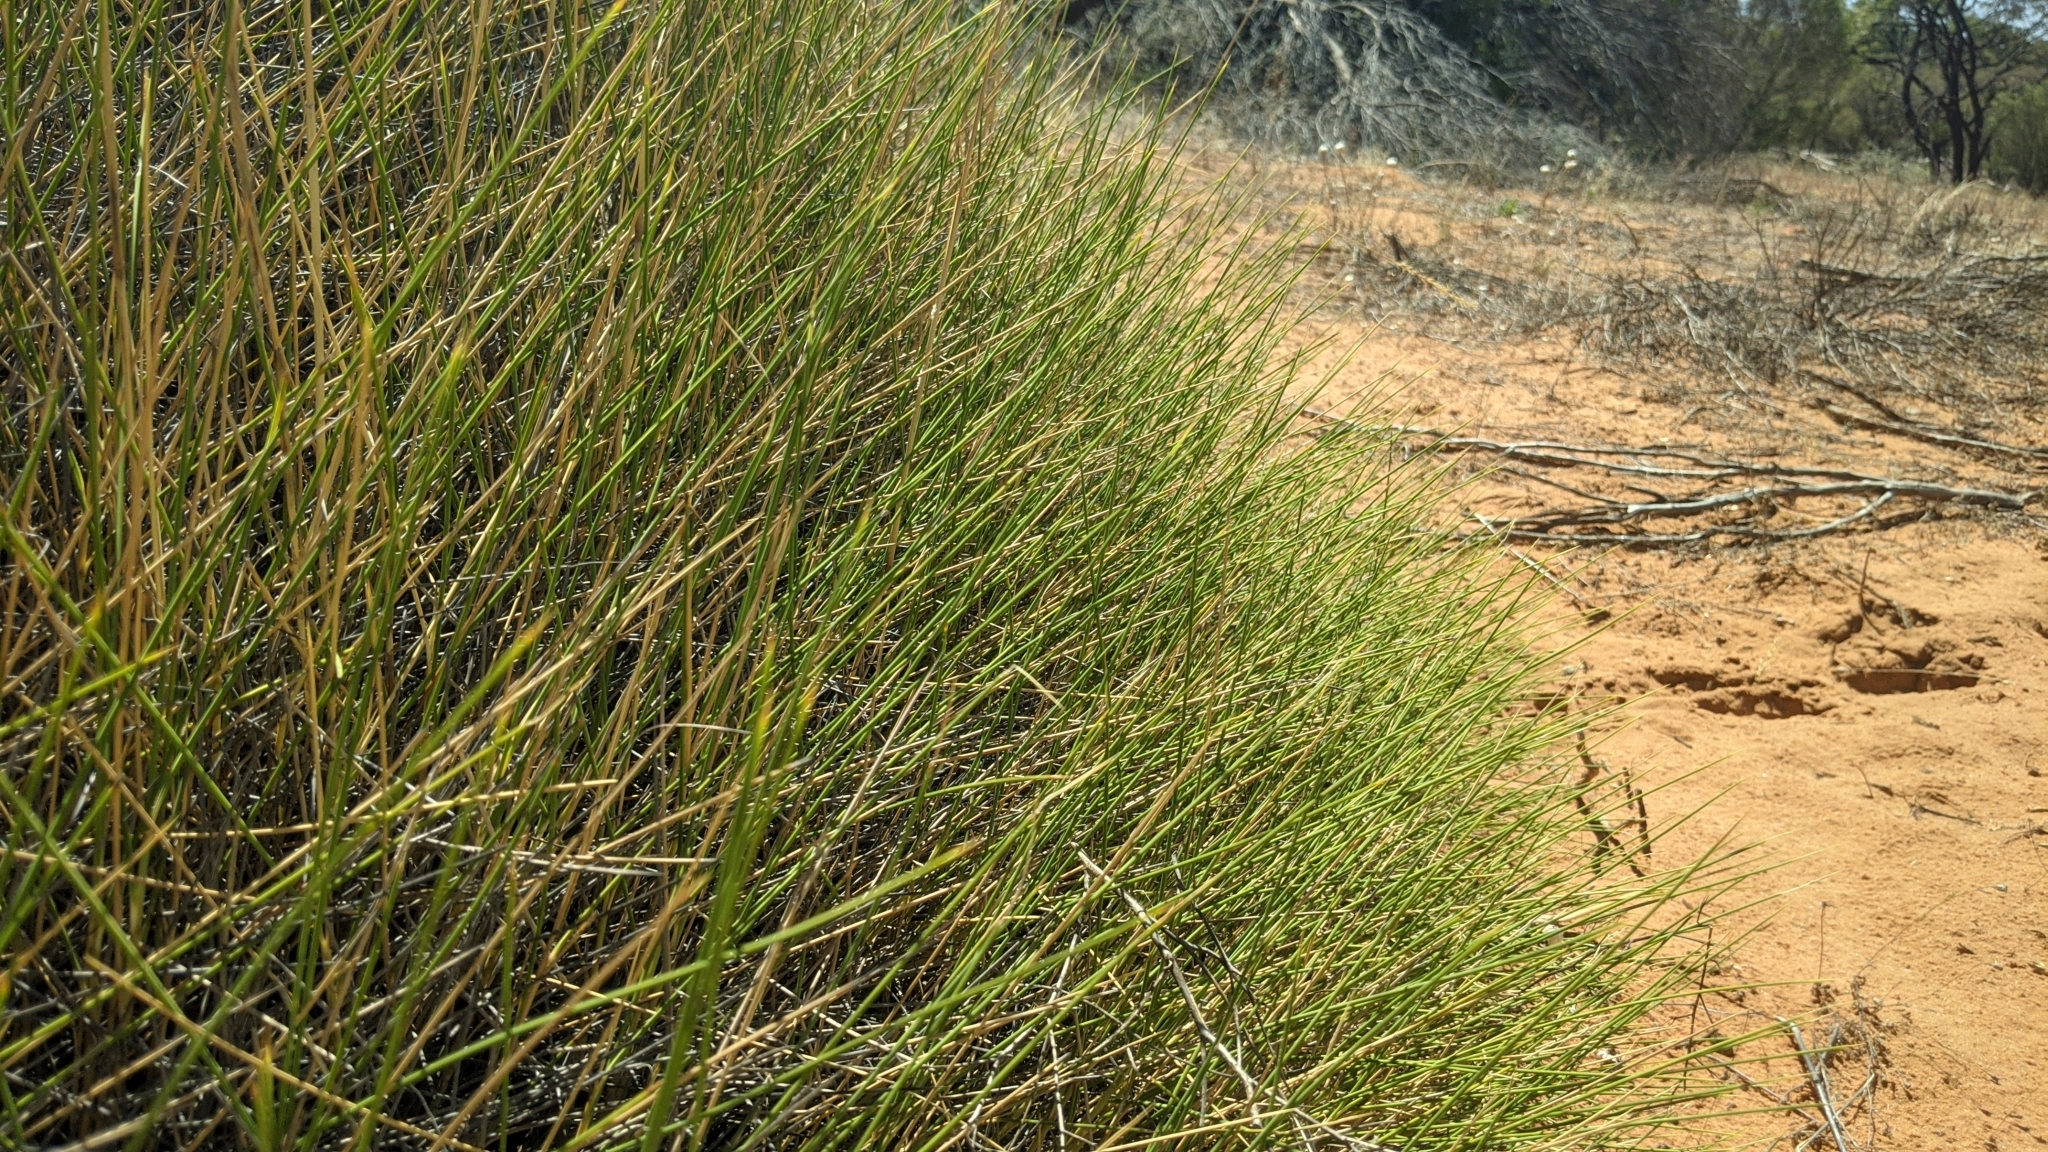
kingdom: Plantae
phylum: Tracheophyta
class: Liliopsida
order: Poales
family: Poaceae
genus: Triodia
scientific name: Triodia scariosa
